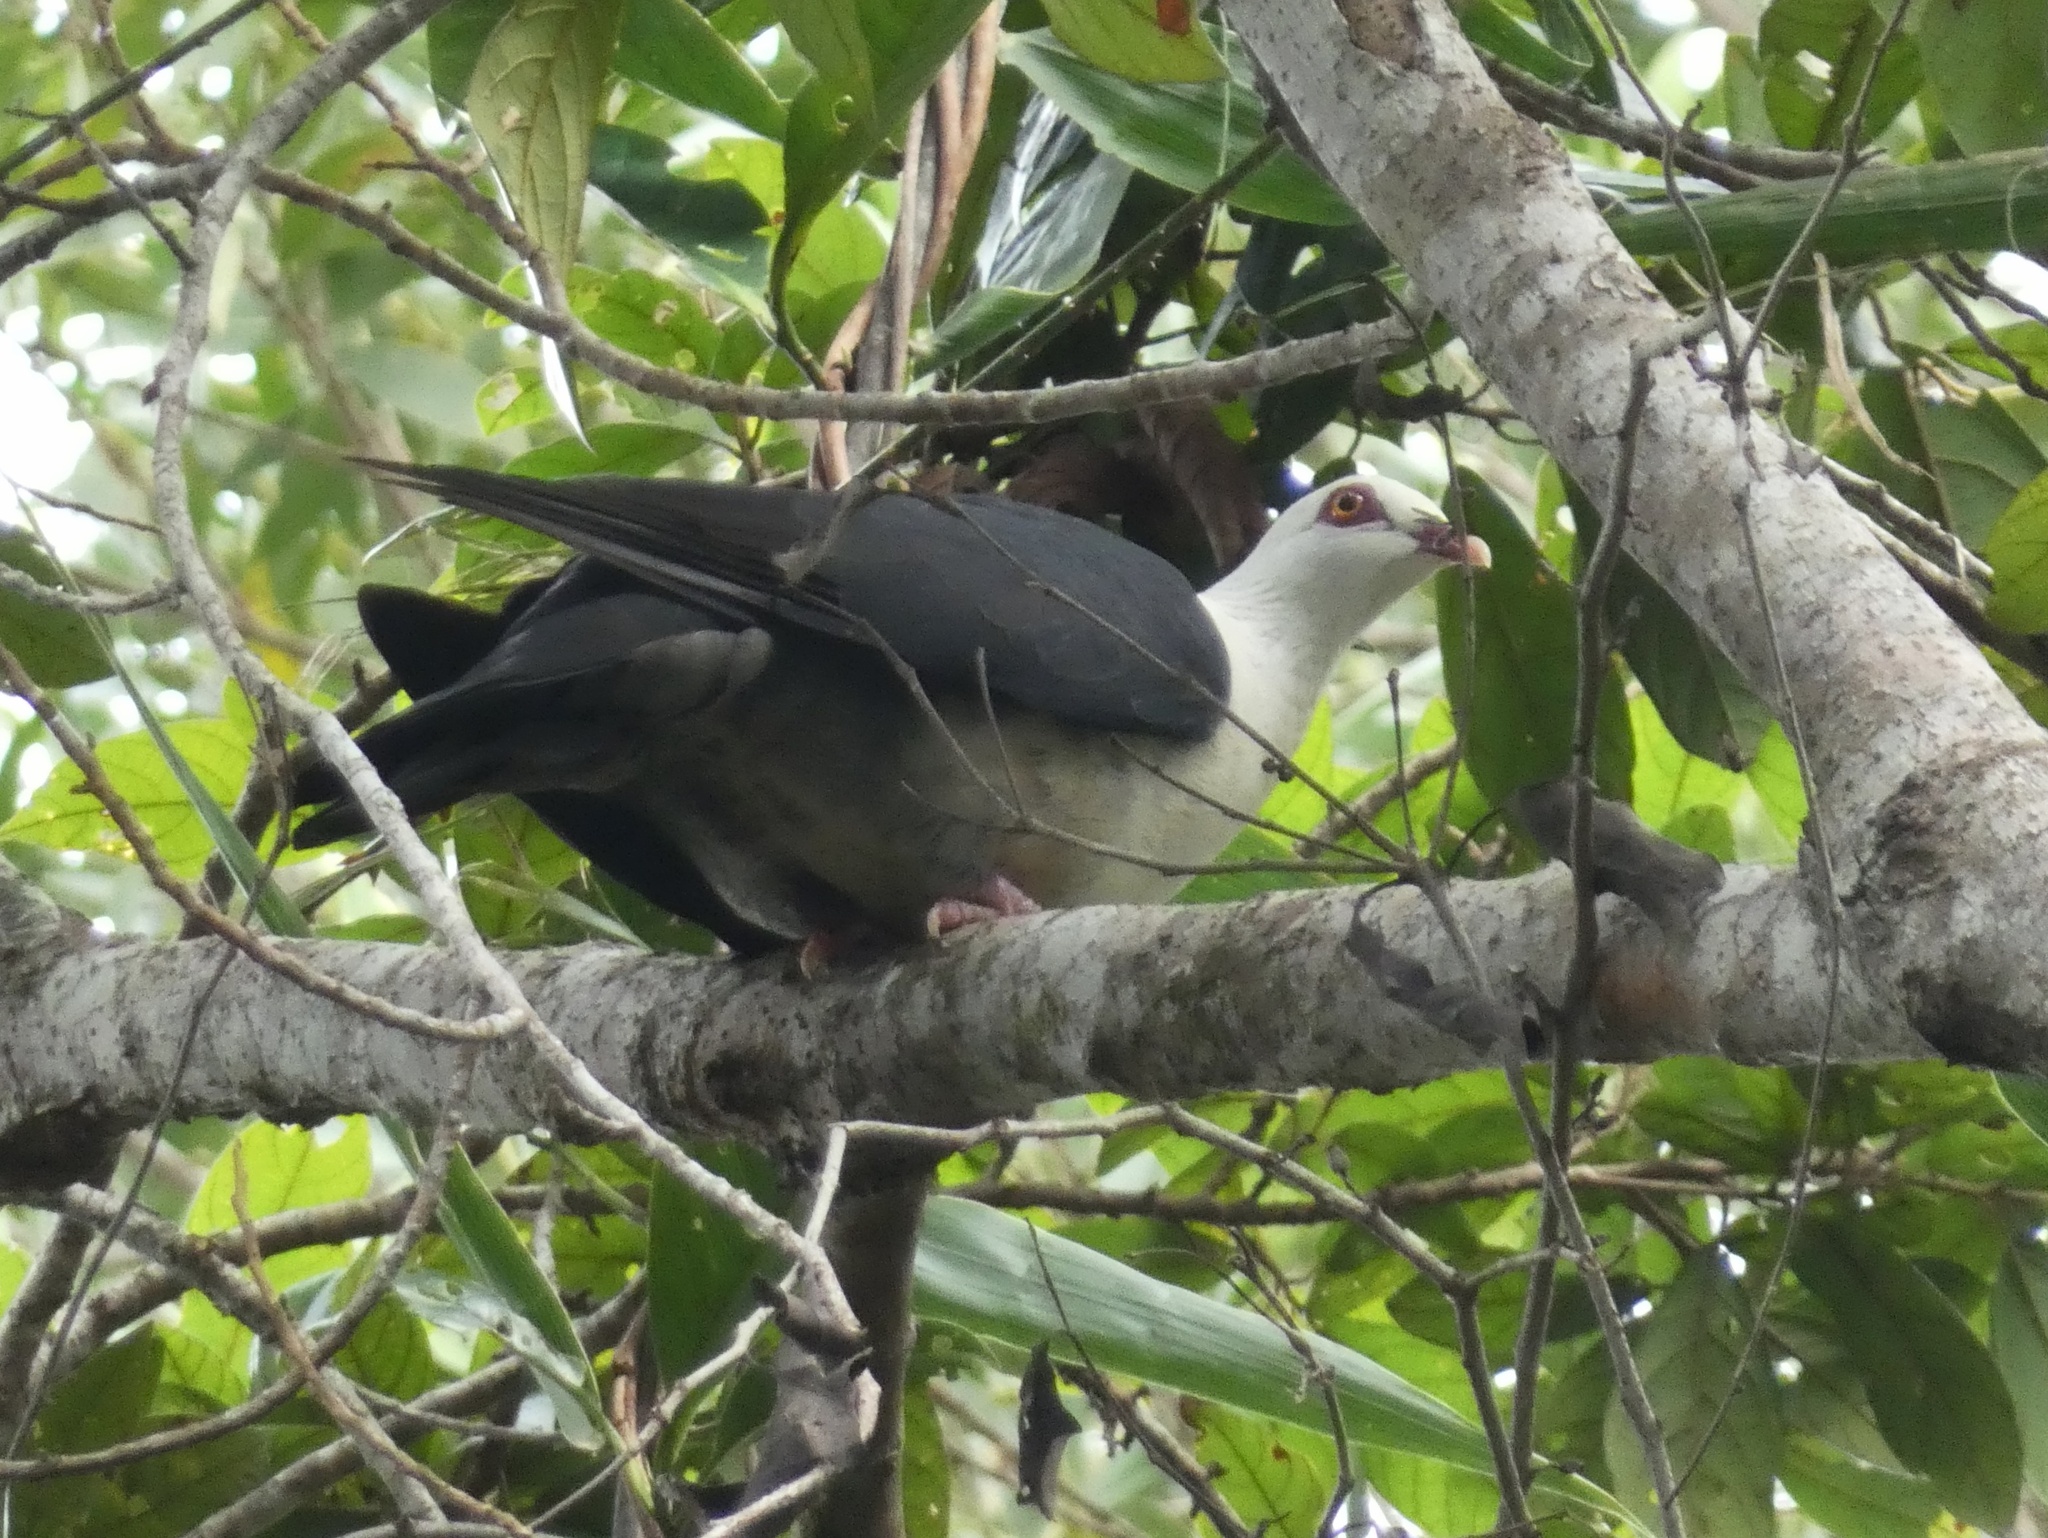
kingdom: Animalia
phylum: Chordata
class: Aves
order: Columbiformes
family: Columbidae
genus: Columba
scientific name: Columba leucomela
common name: White-headed pigeon
